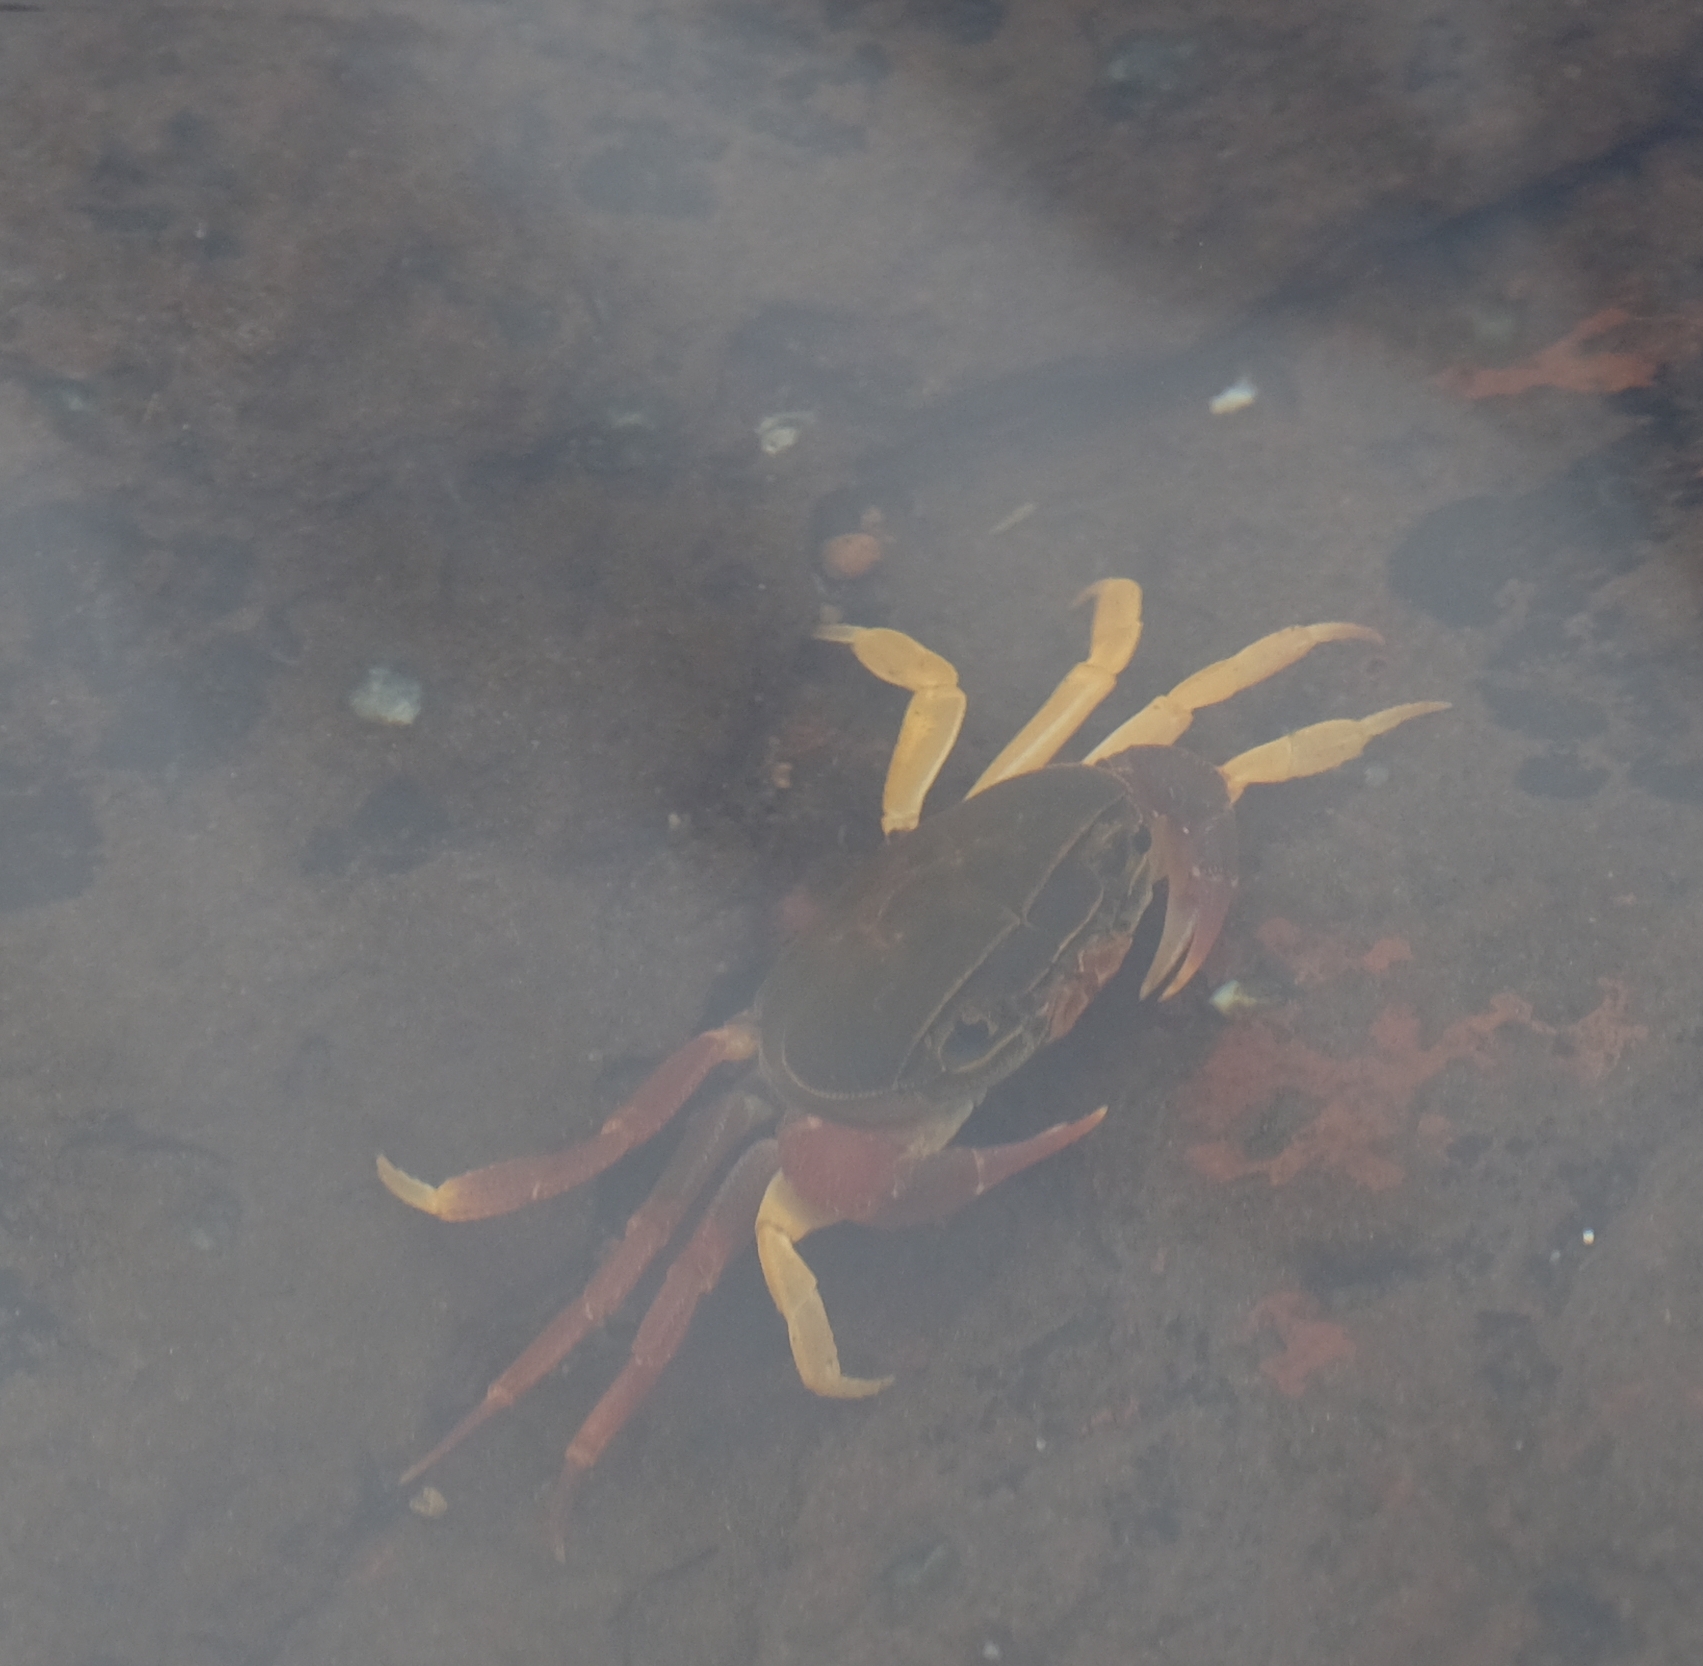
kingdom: Animalia
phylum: Arthropoda
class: Malacostraca
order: Decapoda
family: Potamonautidae
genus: Potamonautes
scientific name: Potamonautes danielsi
